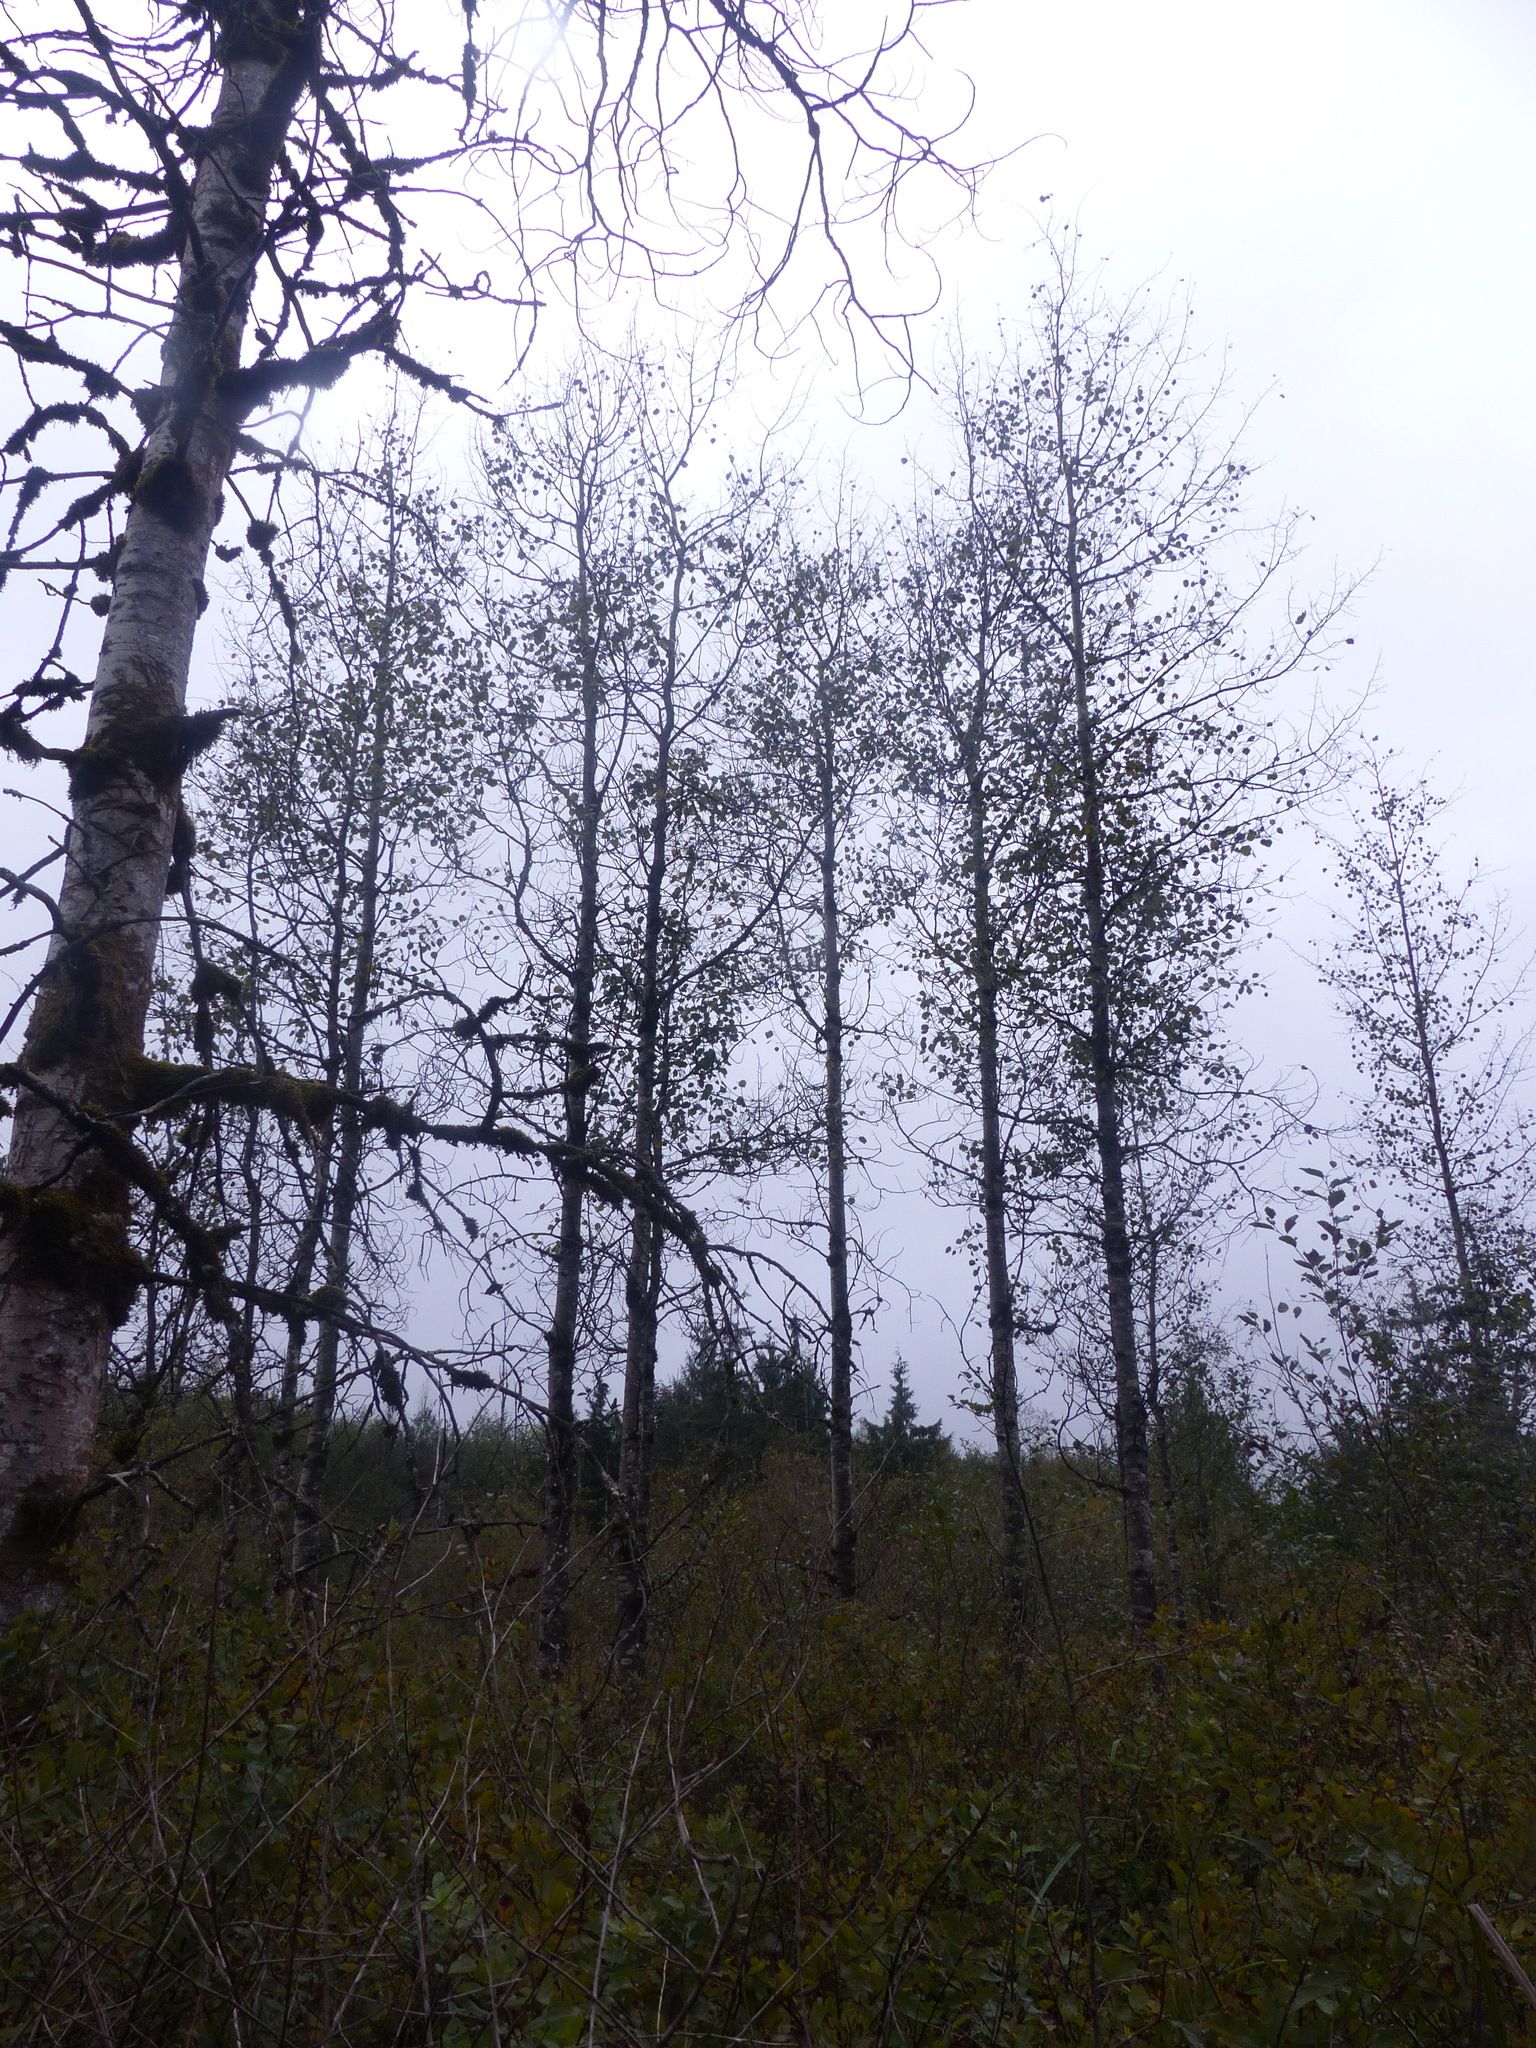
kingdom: Plantae
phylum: Tracheophyta
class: Magnoliopsida
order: Malpighiales
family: Salicaceae
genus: Populus
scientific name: Populus tremuloides
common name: Quaking aspen
